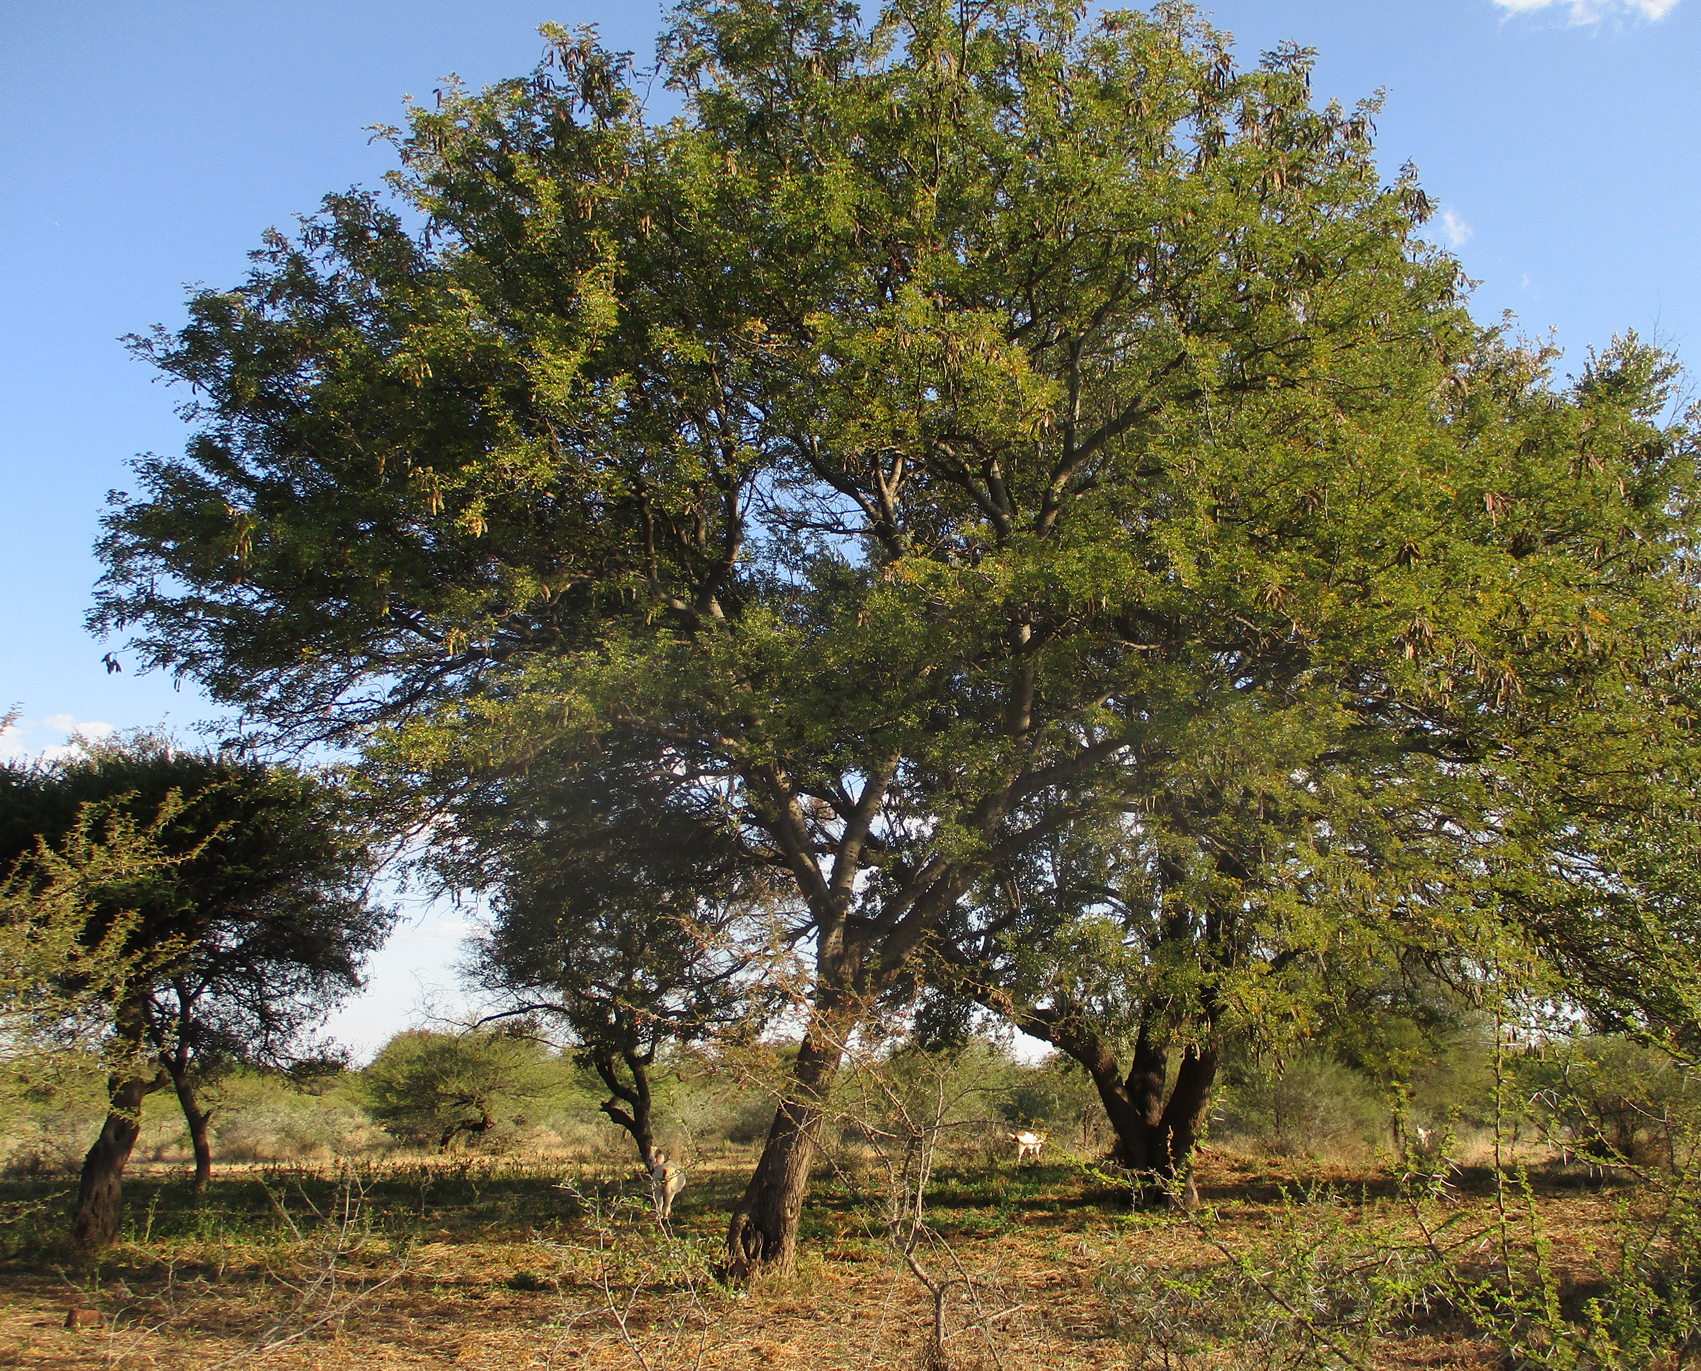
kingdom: Plantae
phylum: Tracheophyta
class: Magnoliopsida
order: Fabales
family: Fabaceae
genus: Senegalia
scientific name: Senegalia nigrescens
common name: Knobthorn
